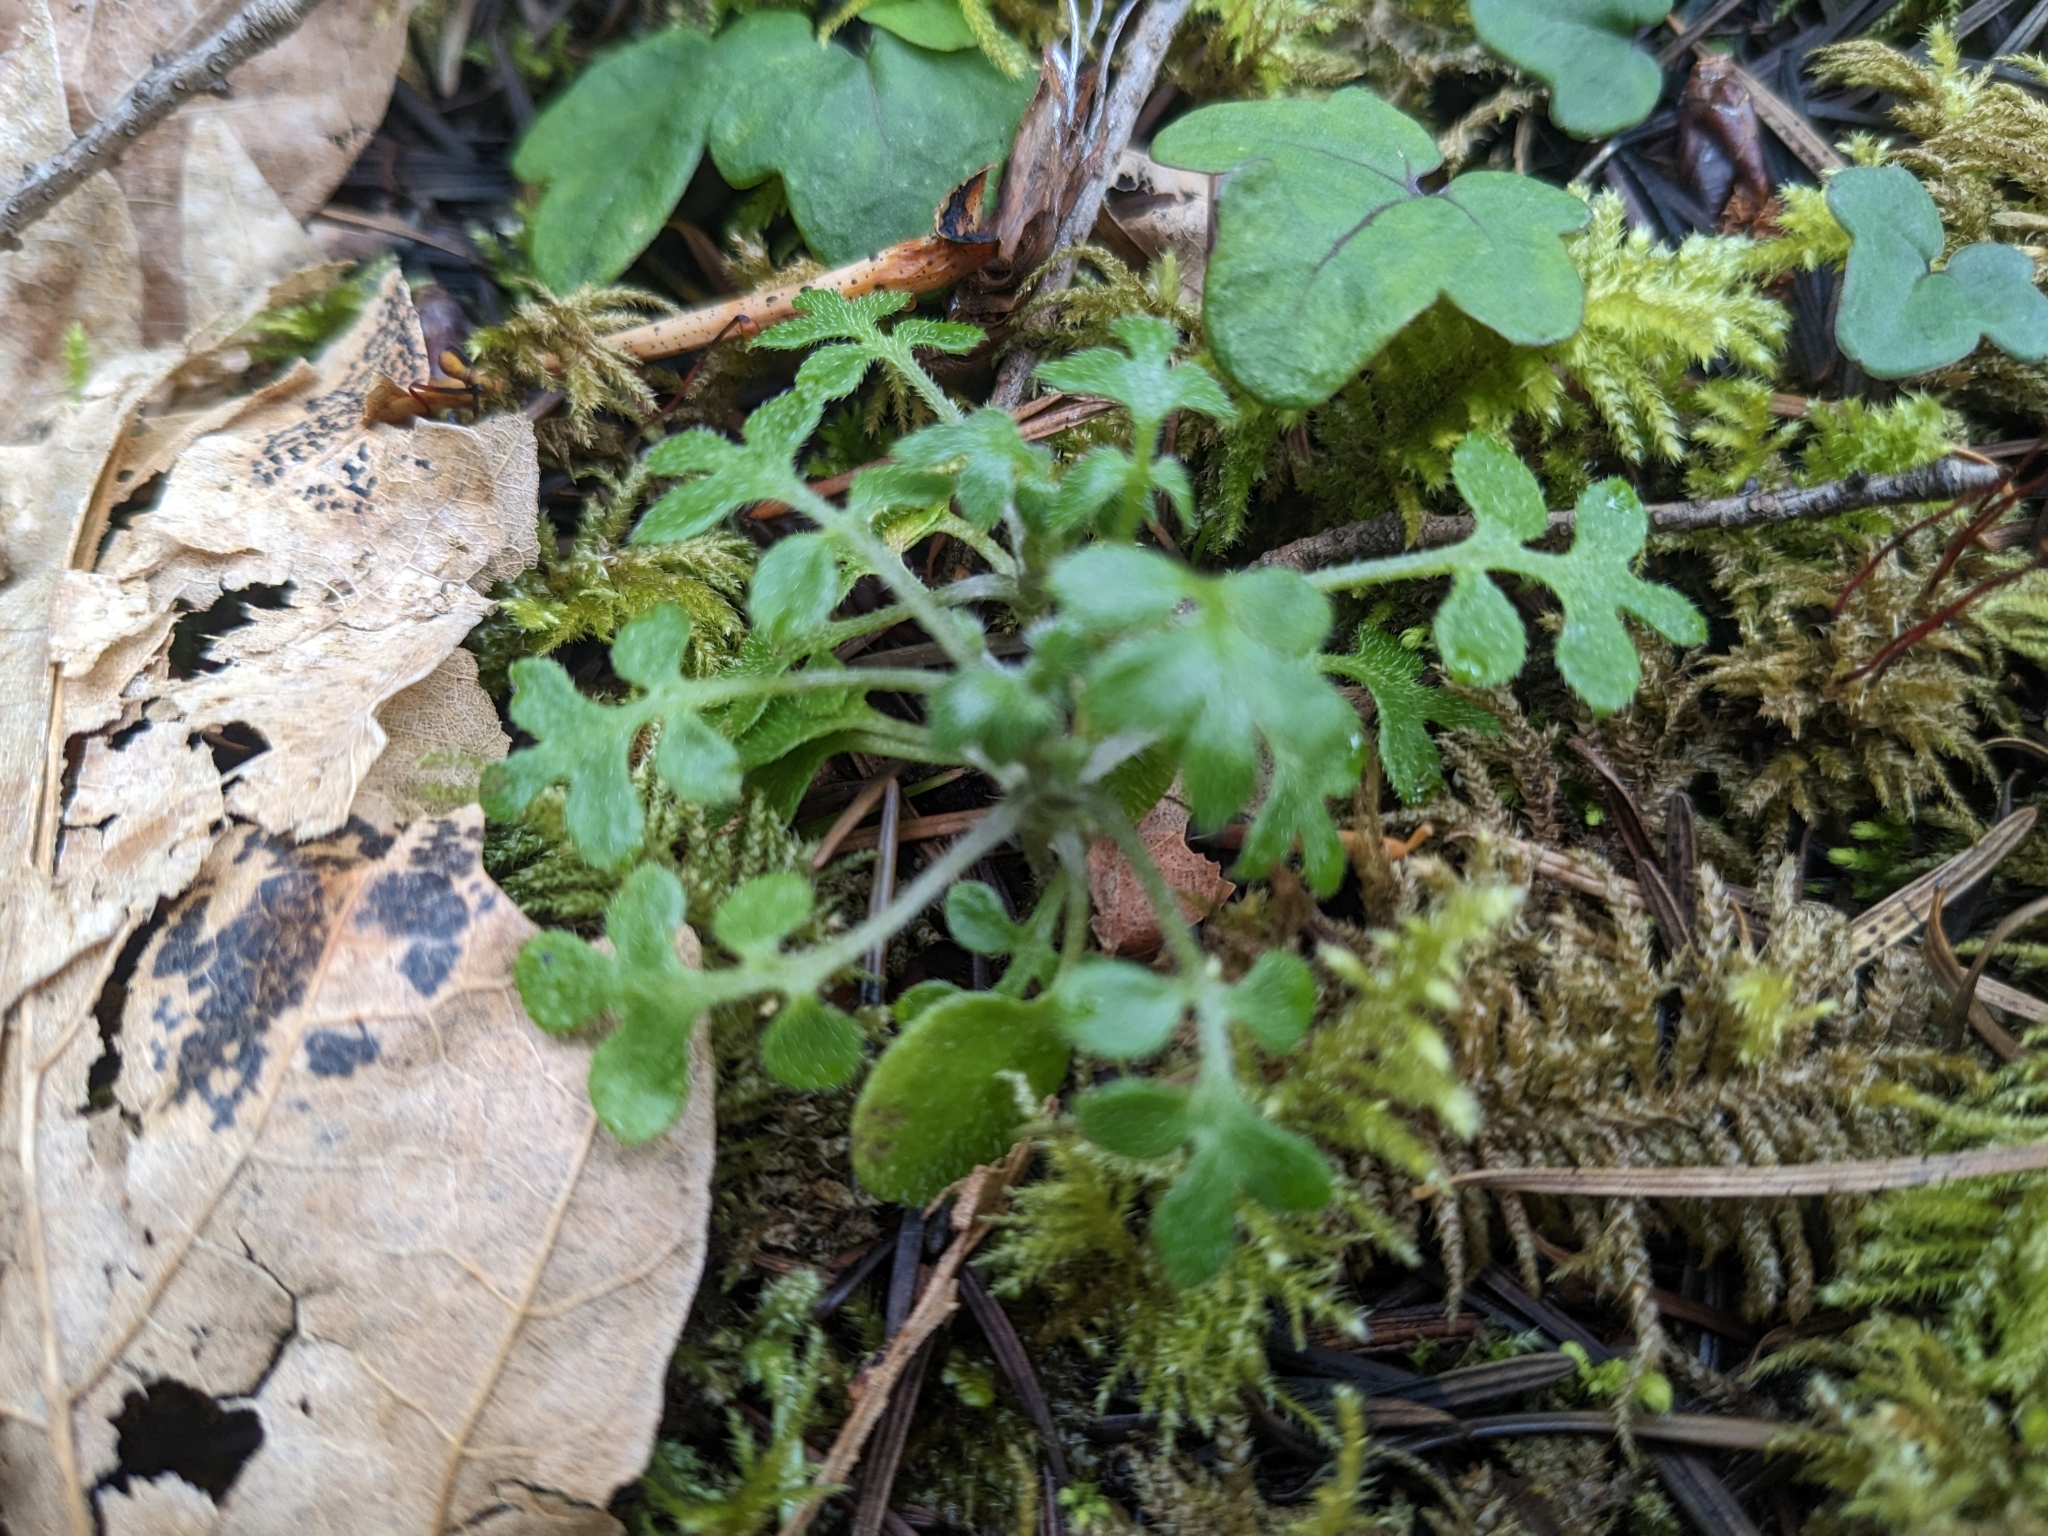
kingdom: Plantae
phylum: Tracheophyta
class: Magnoliopsida
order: Boraginales
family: Hydrophyllaceae
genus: Nemophila
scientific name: Nemophila parviflora
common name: Small-flowered baby-blue-eyes
